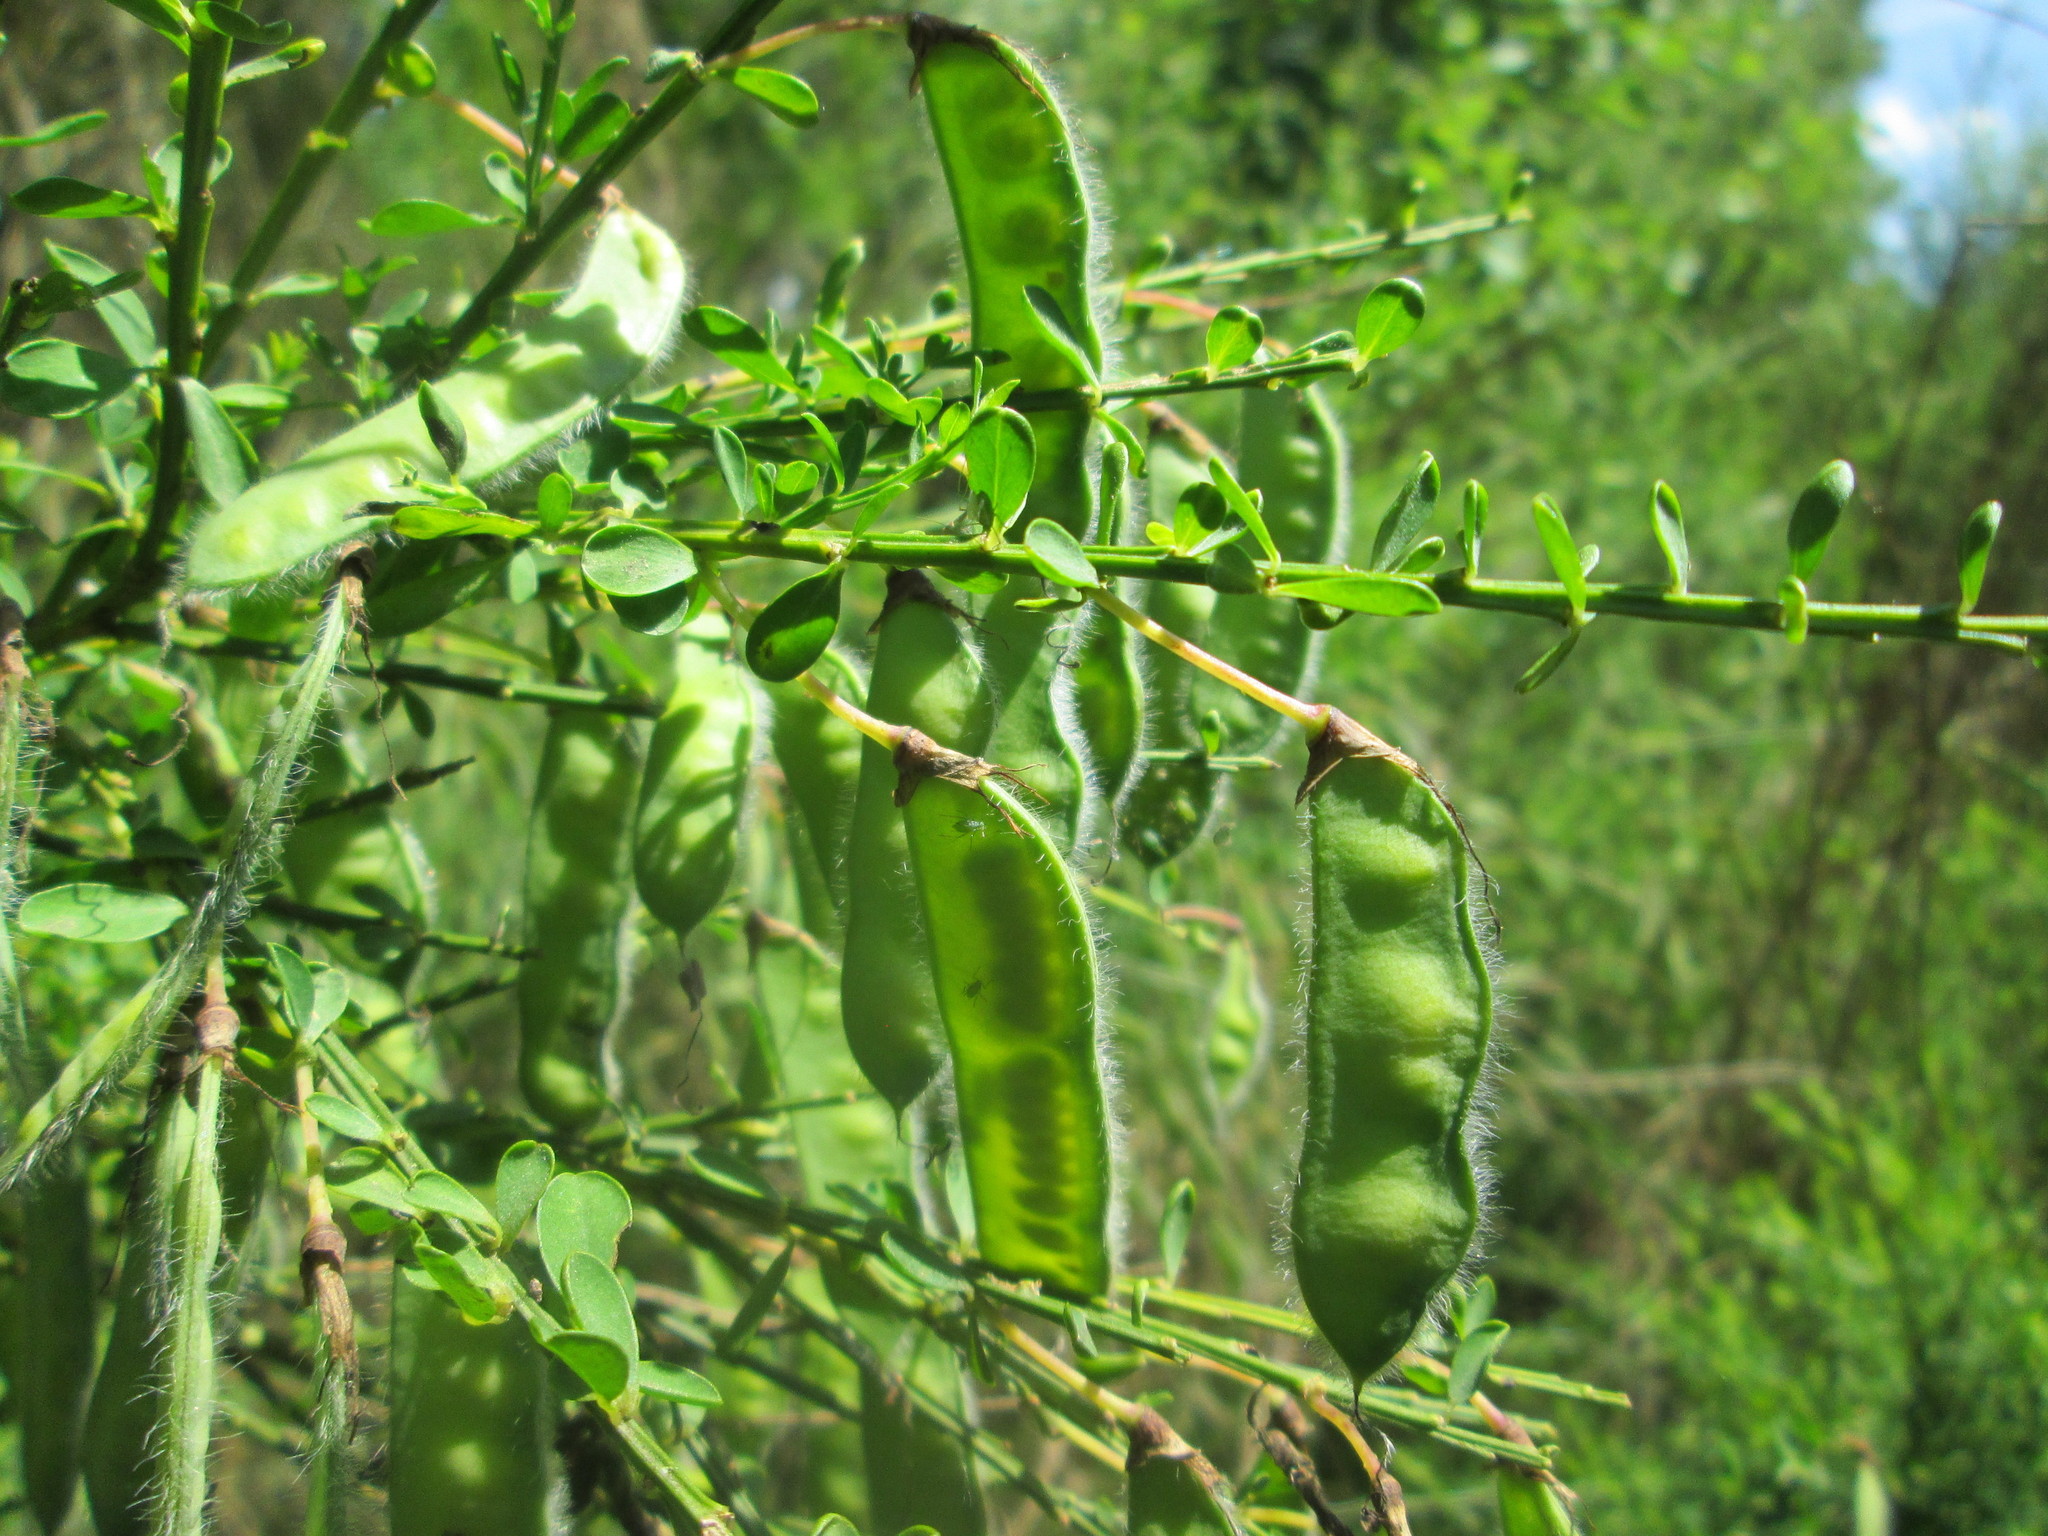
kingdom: Plantae
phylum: Tracheophyta
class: Magnoliopsida
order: Fabales
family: Fabaceae
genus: Cytisus
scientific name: Cytisus scoparius
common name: Scotch broom
